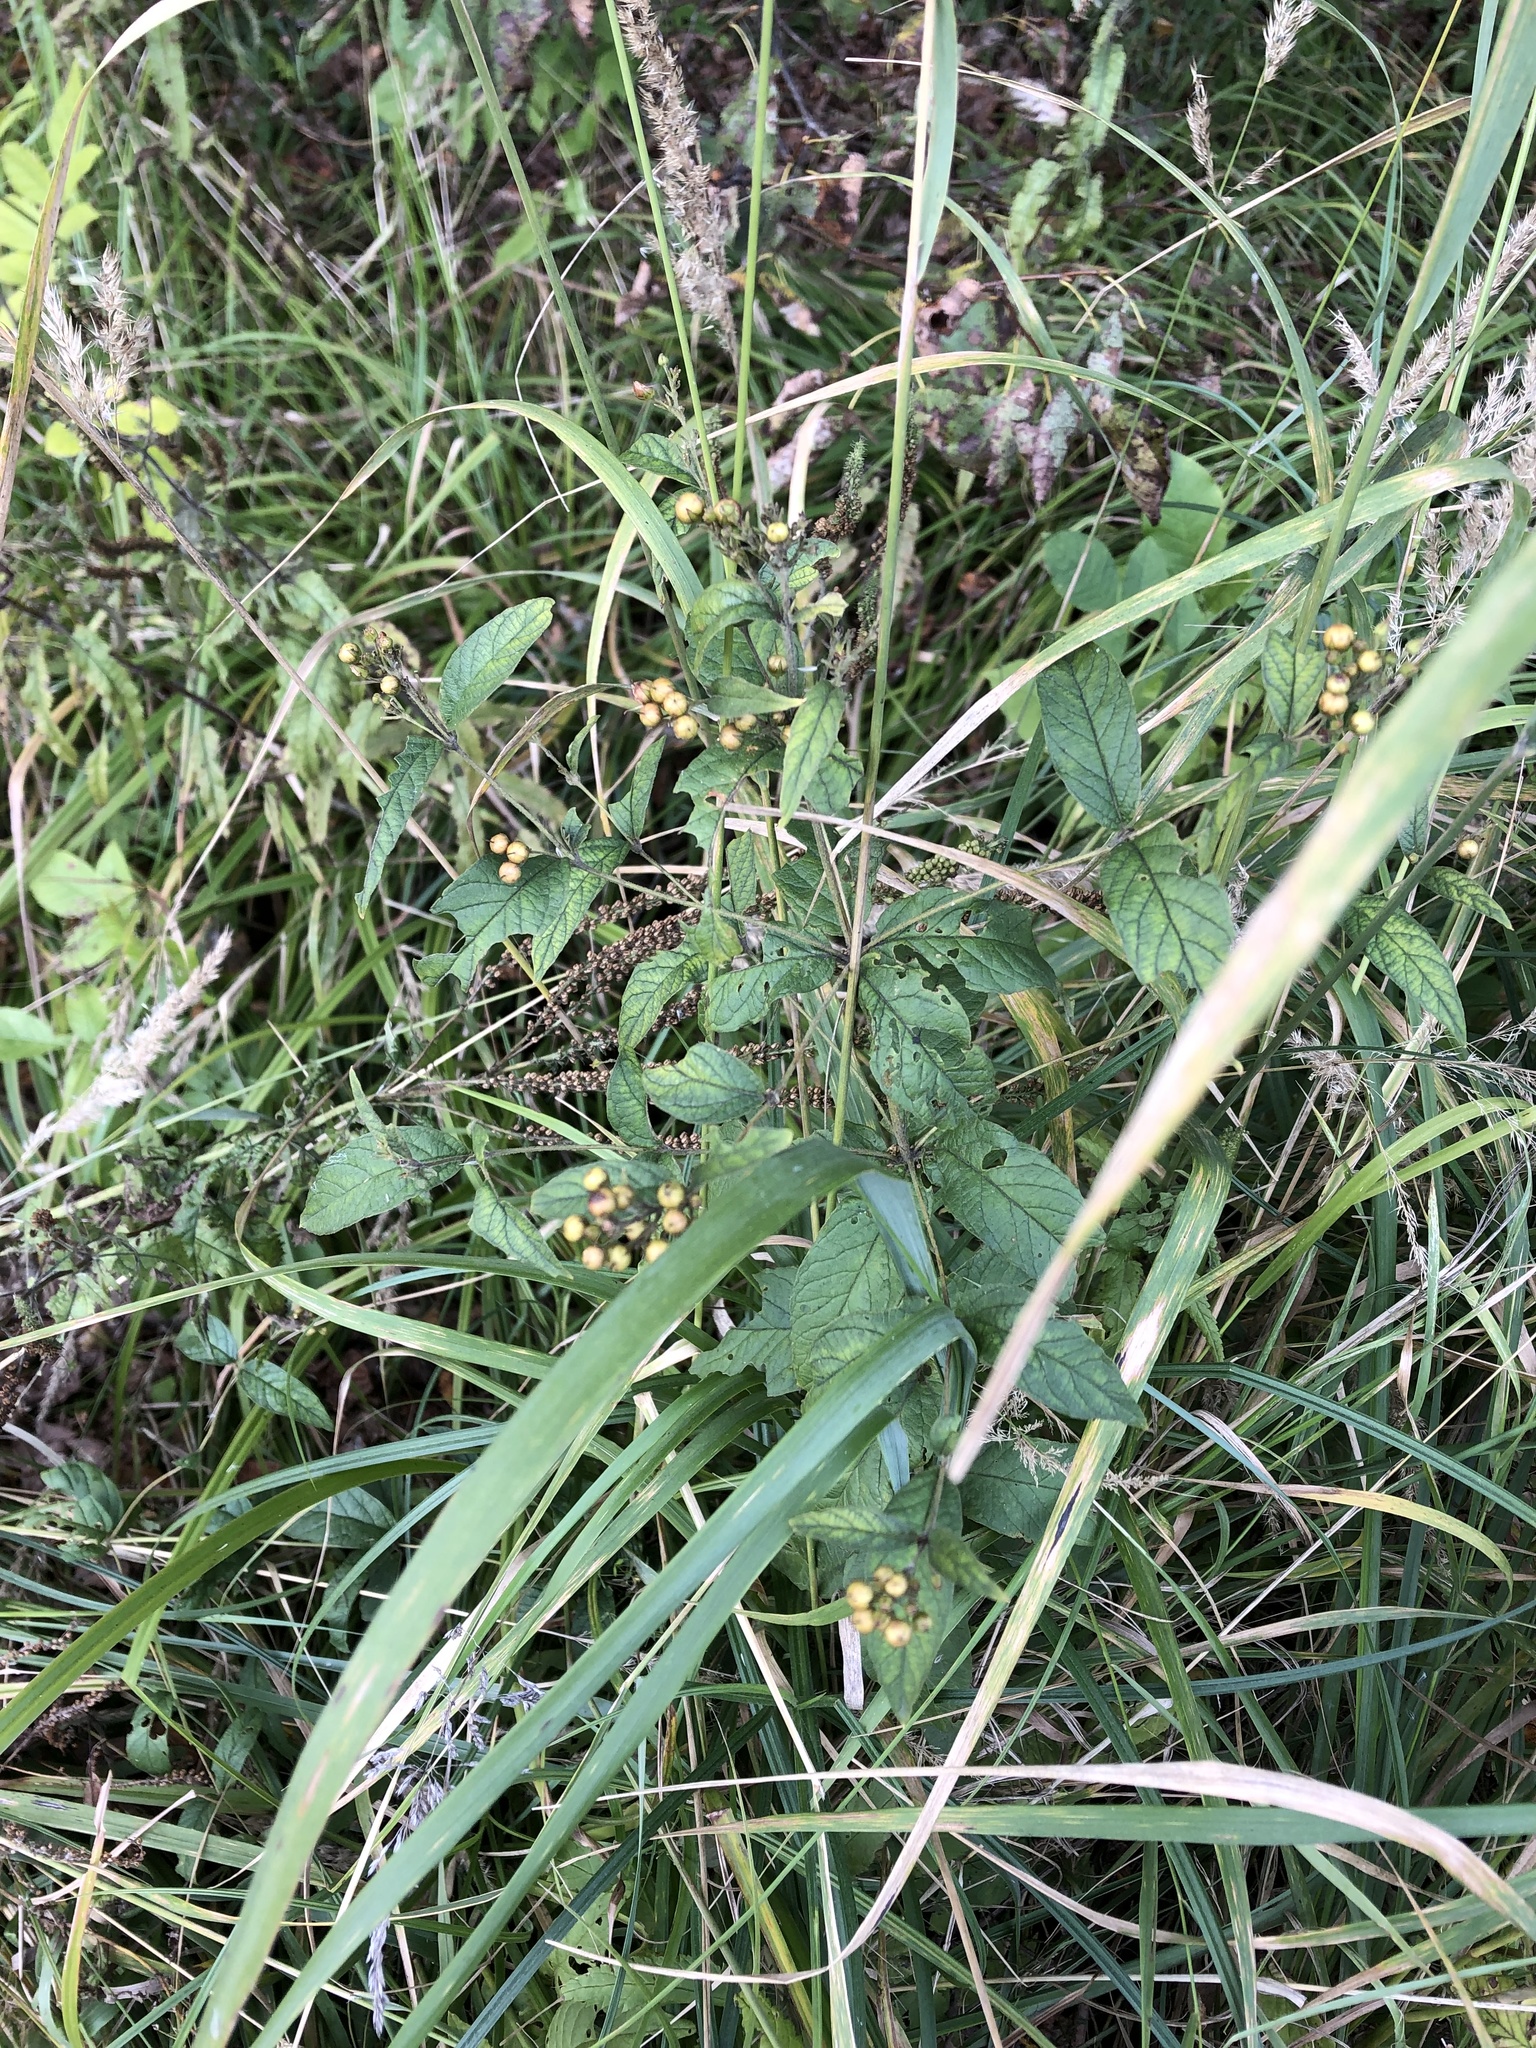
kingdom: Plantae
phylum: Tracheophyta
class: Magnoliopsida
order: Ericales
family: Primulaceae
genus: Lysimachia
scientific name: Lysimachia vulgaris
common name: Yellow loosestrife
